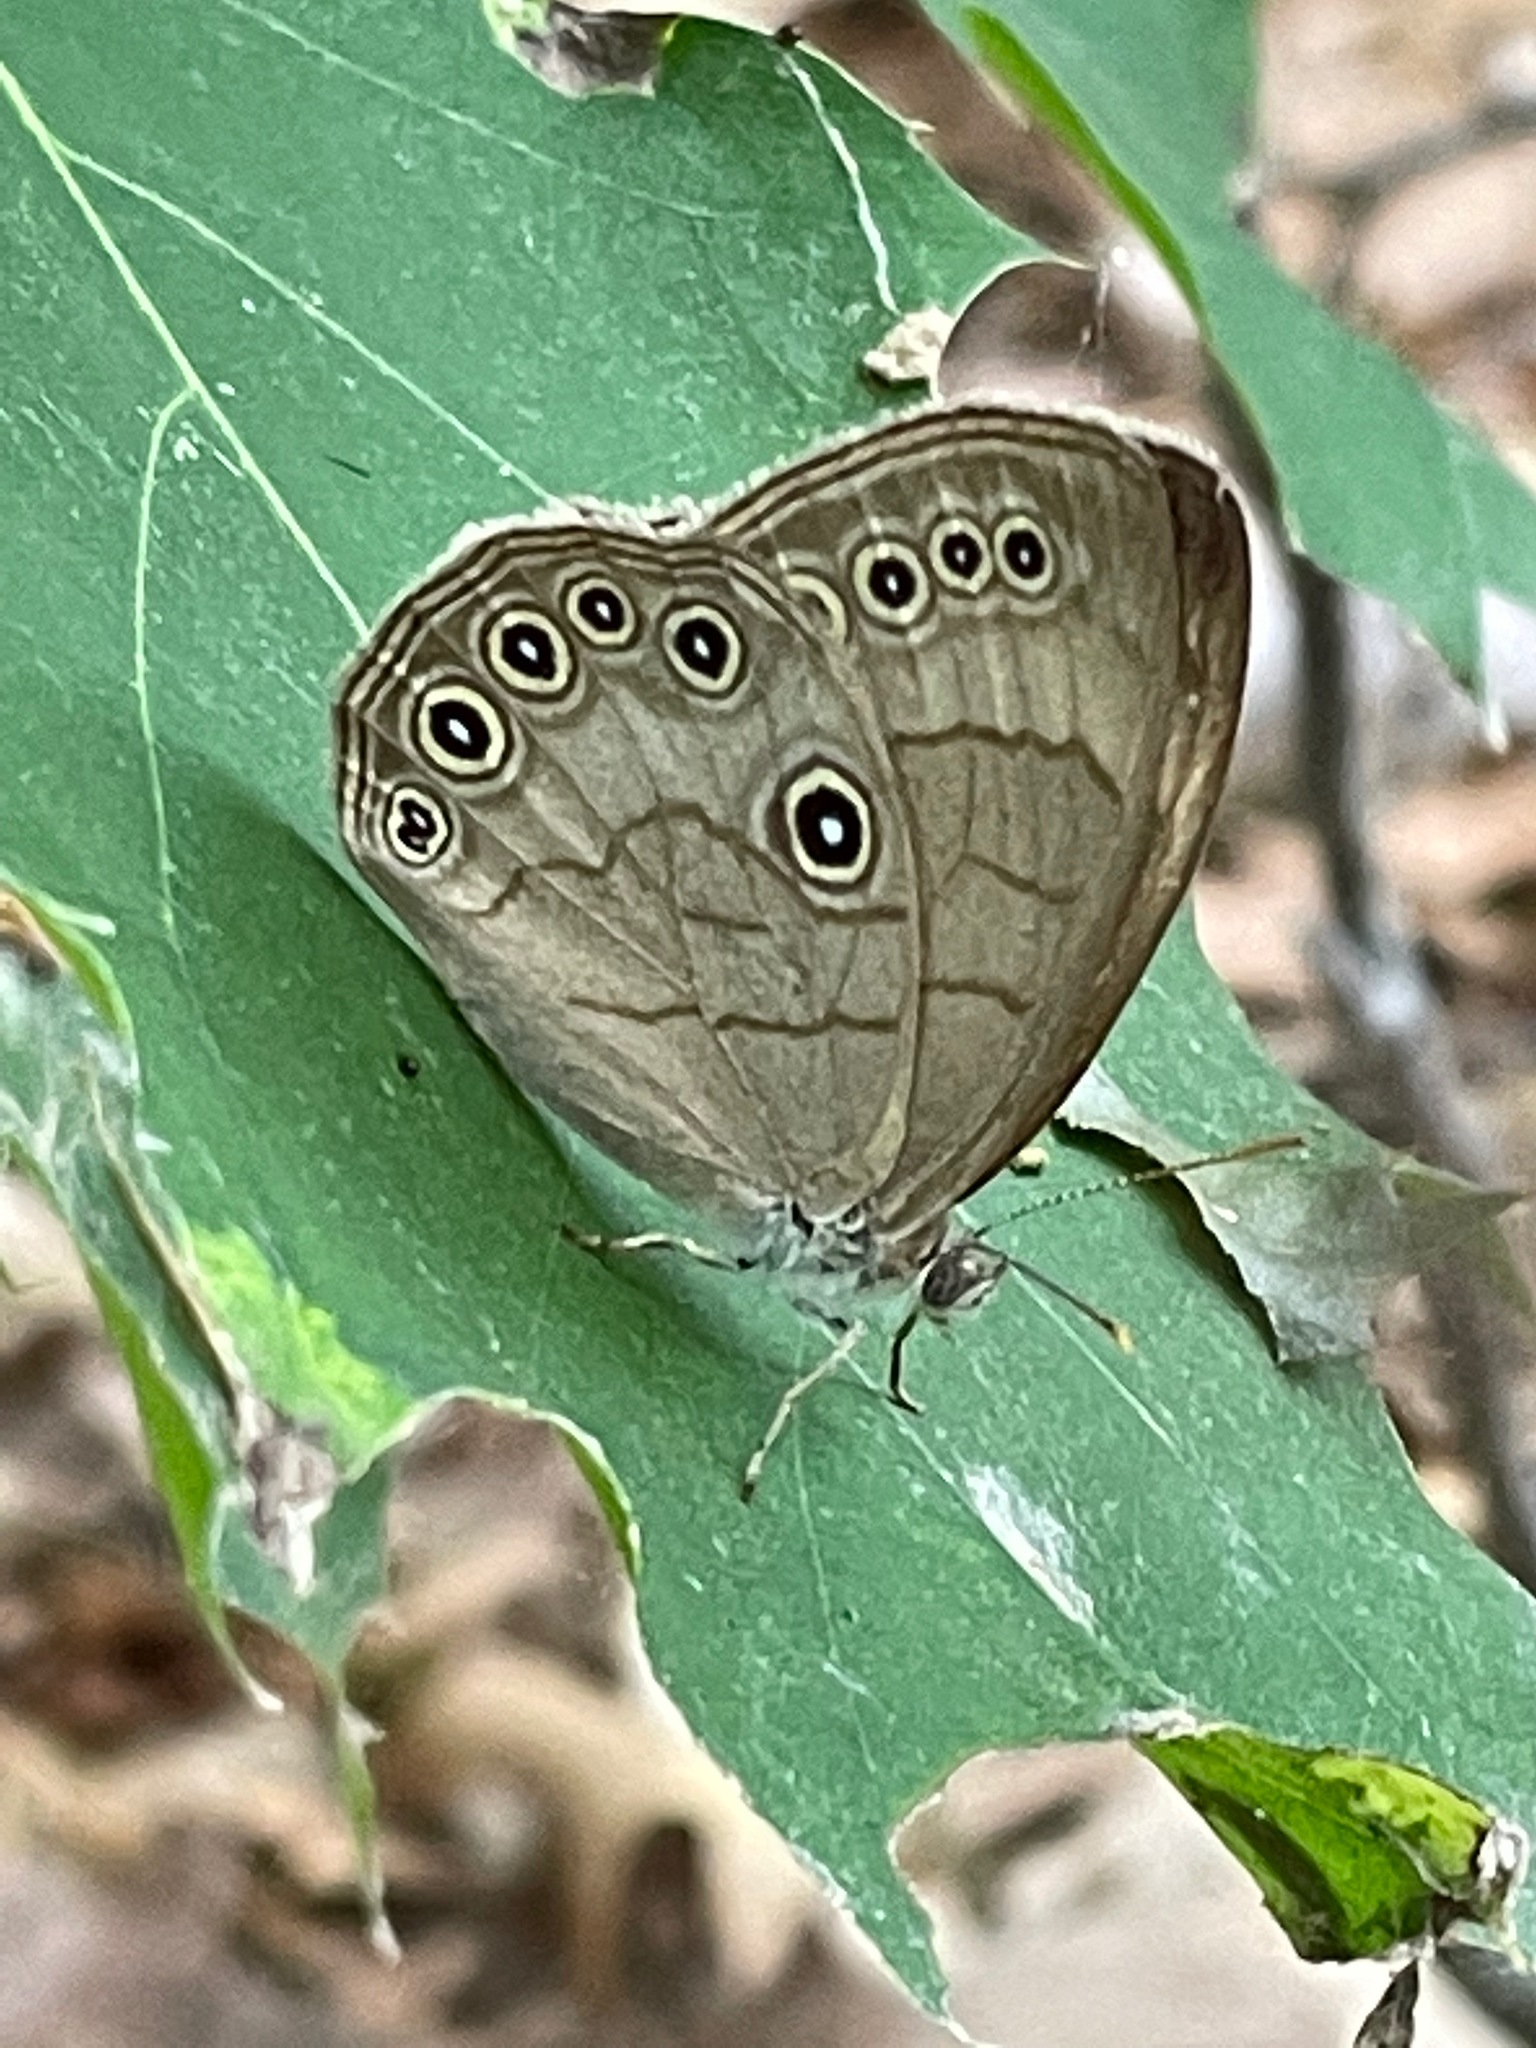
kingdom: Animalia
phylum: Arthropoda
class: Insecta
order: Lepidoptera
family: Nymphalidae
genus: Lethe
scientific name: Lethe eurydice
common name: Eyed brown
